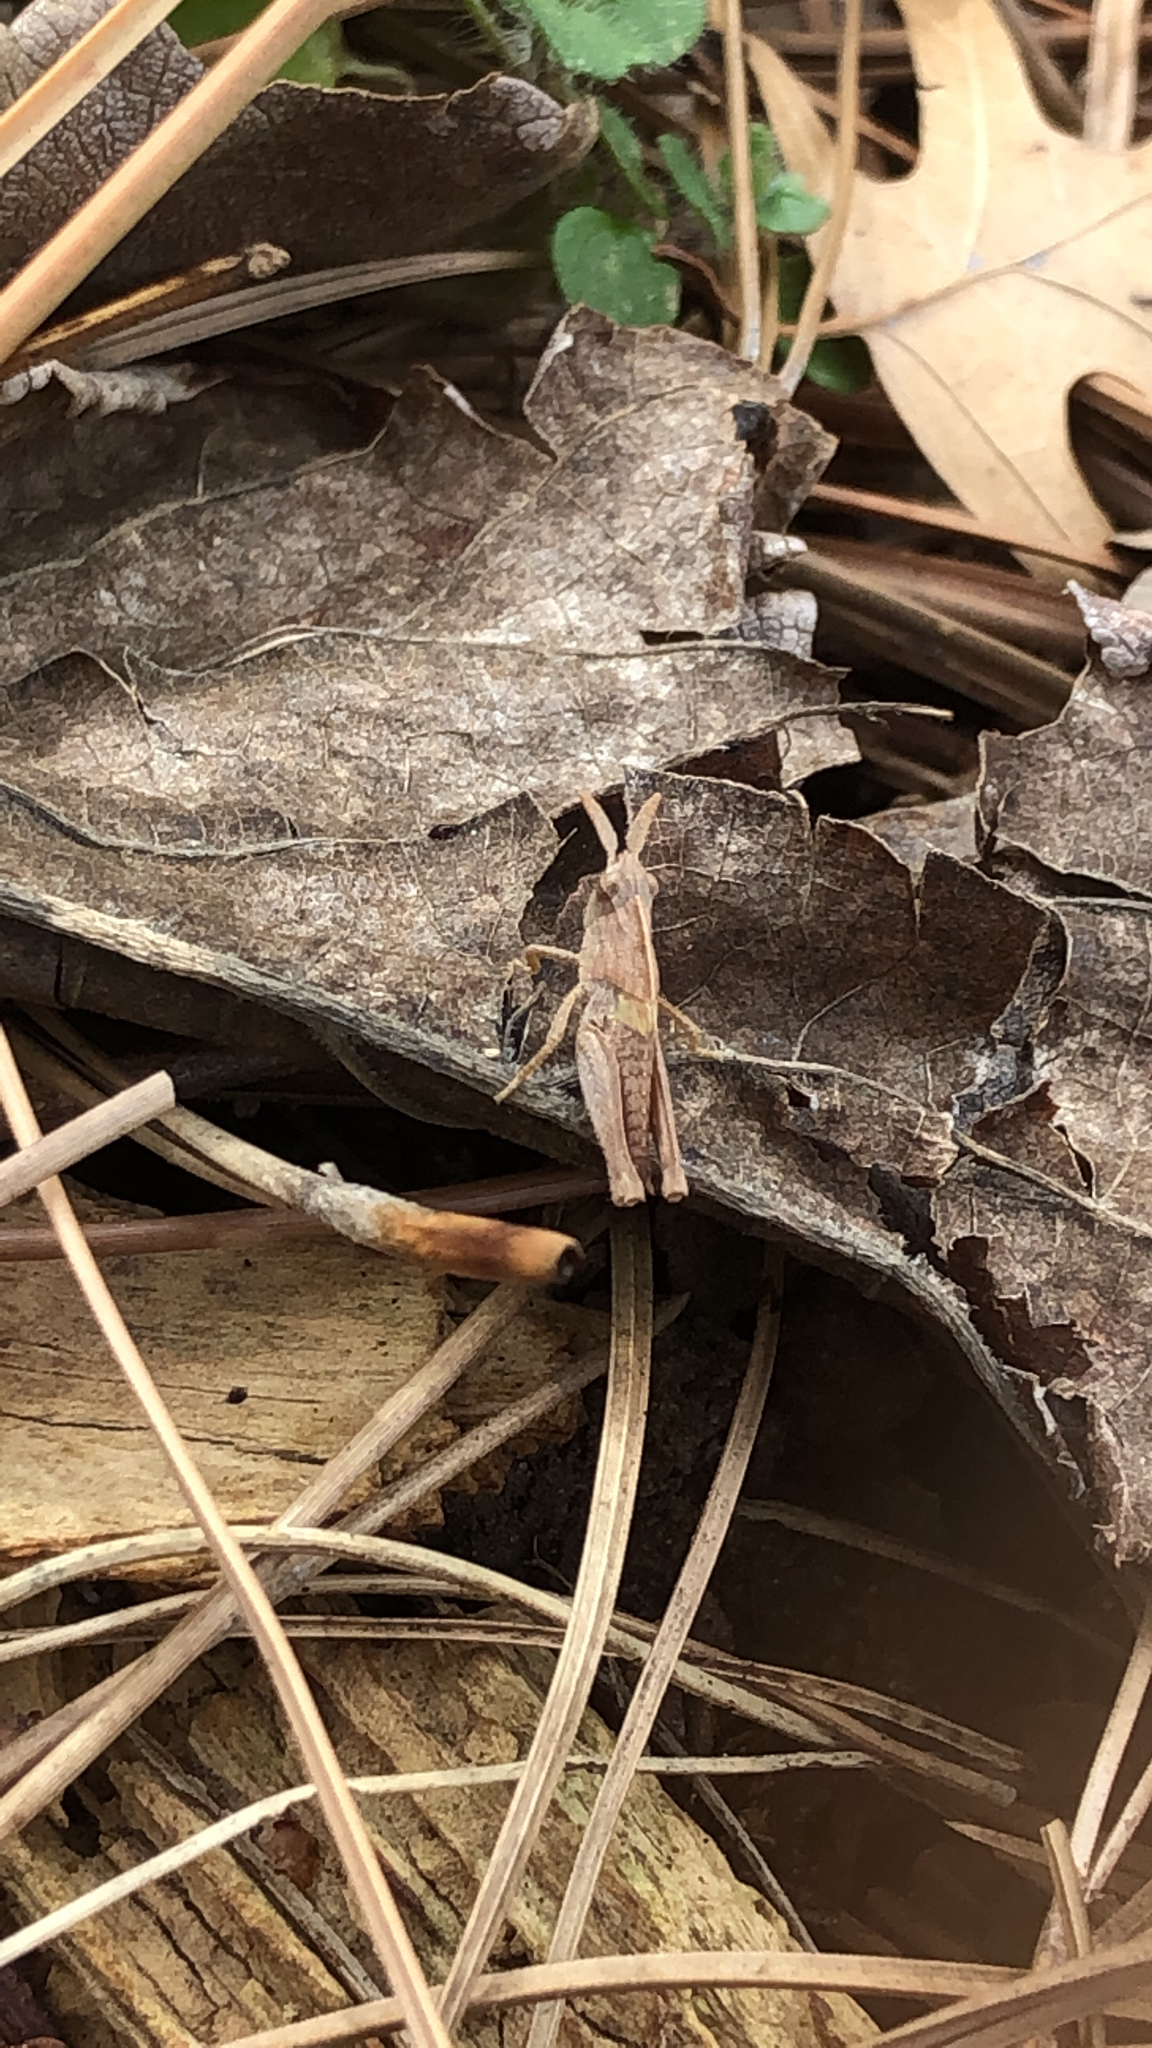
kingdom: Animalia
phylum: Arthropoda
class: Insecta
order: Orthoptera
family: Acrididae
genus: Chortophaga
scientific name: Chortophaga viridifasciata
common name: Green-striped grasshopper
